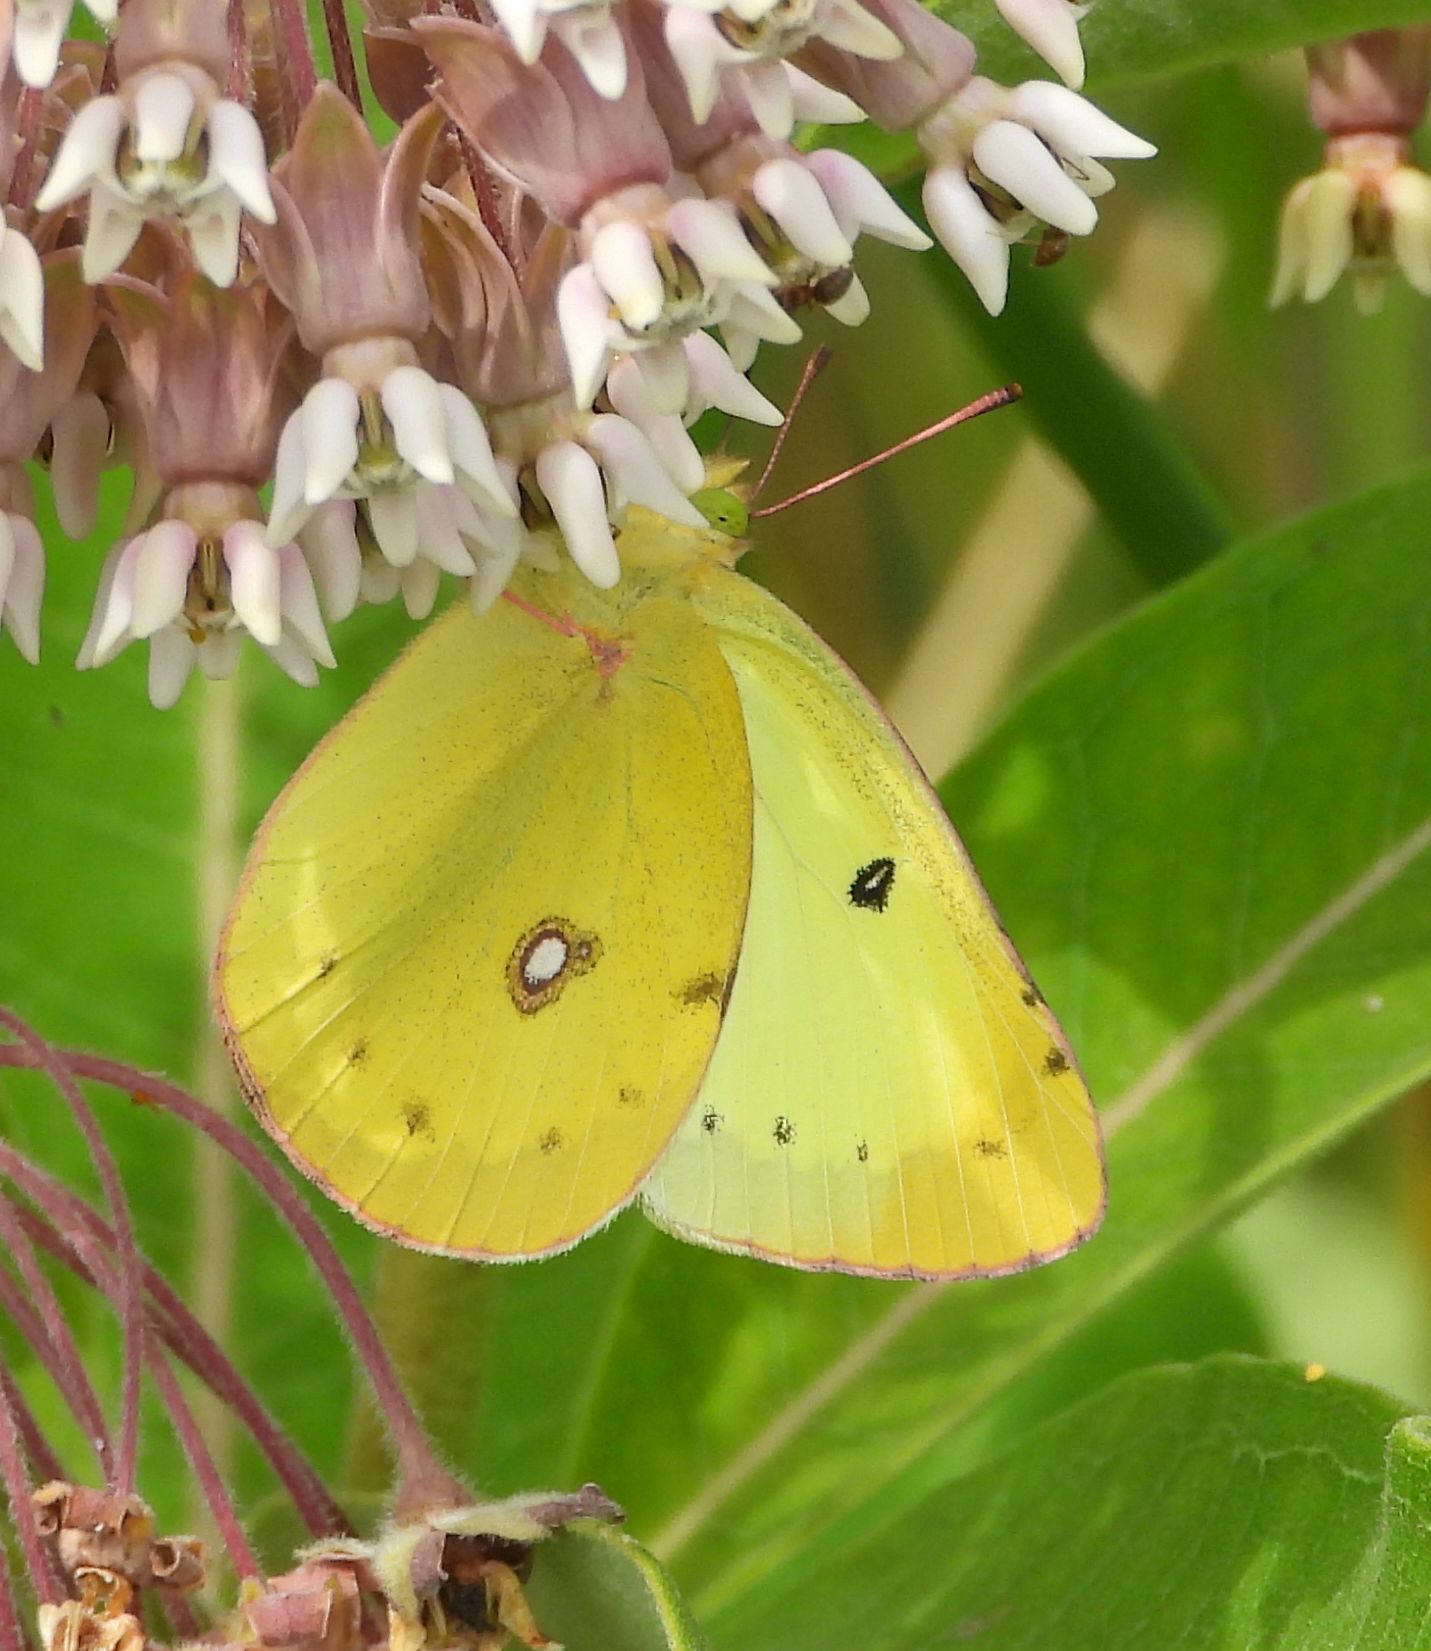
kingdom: Animalia
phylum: Arthropoda
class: Insecta
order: Lepidoptera
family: Pieridae
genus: Colias
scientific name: Colias philodice
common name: Clouded sulphur
